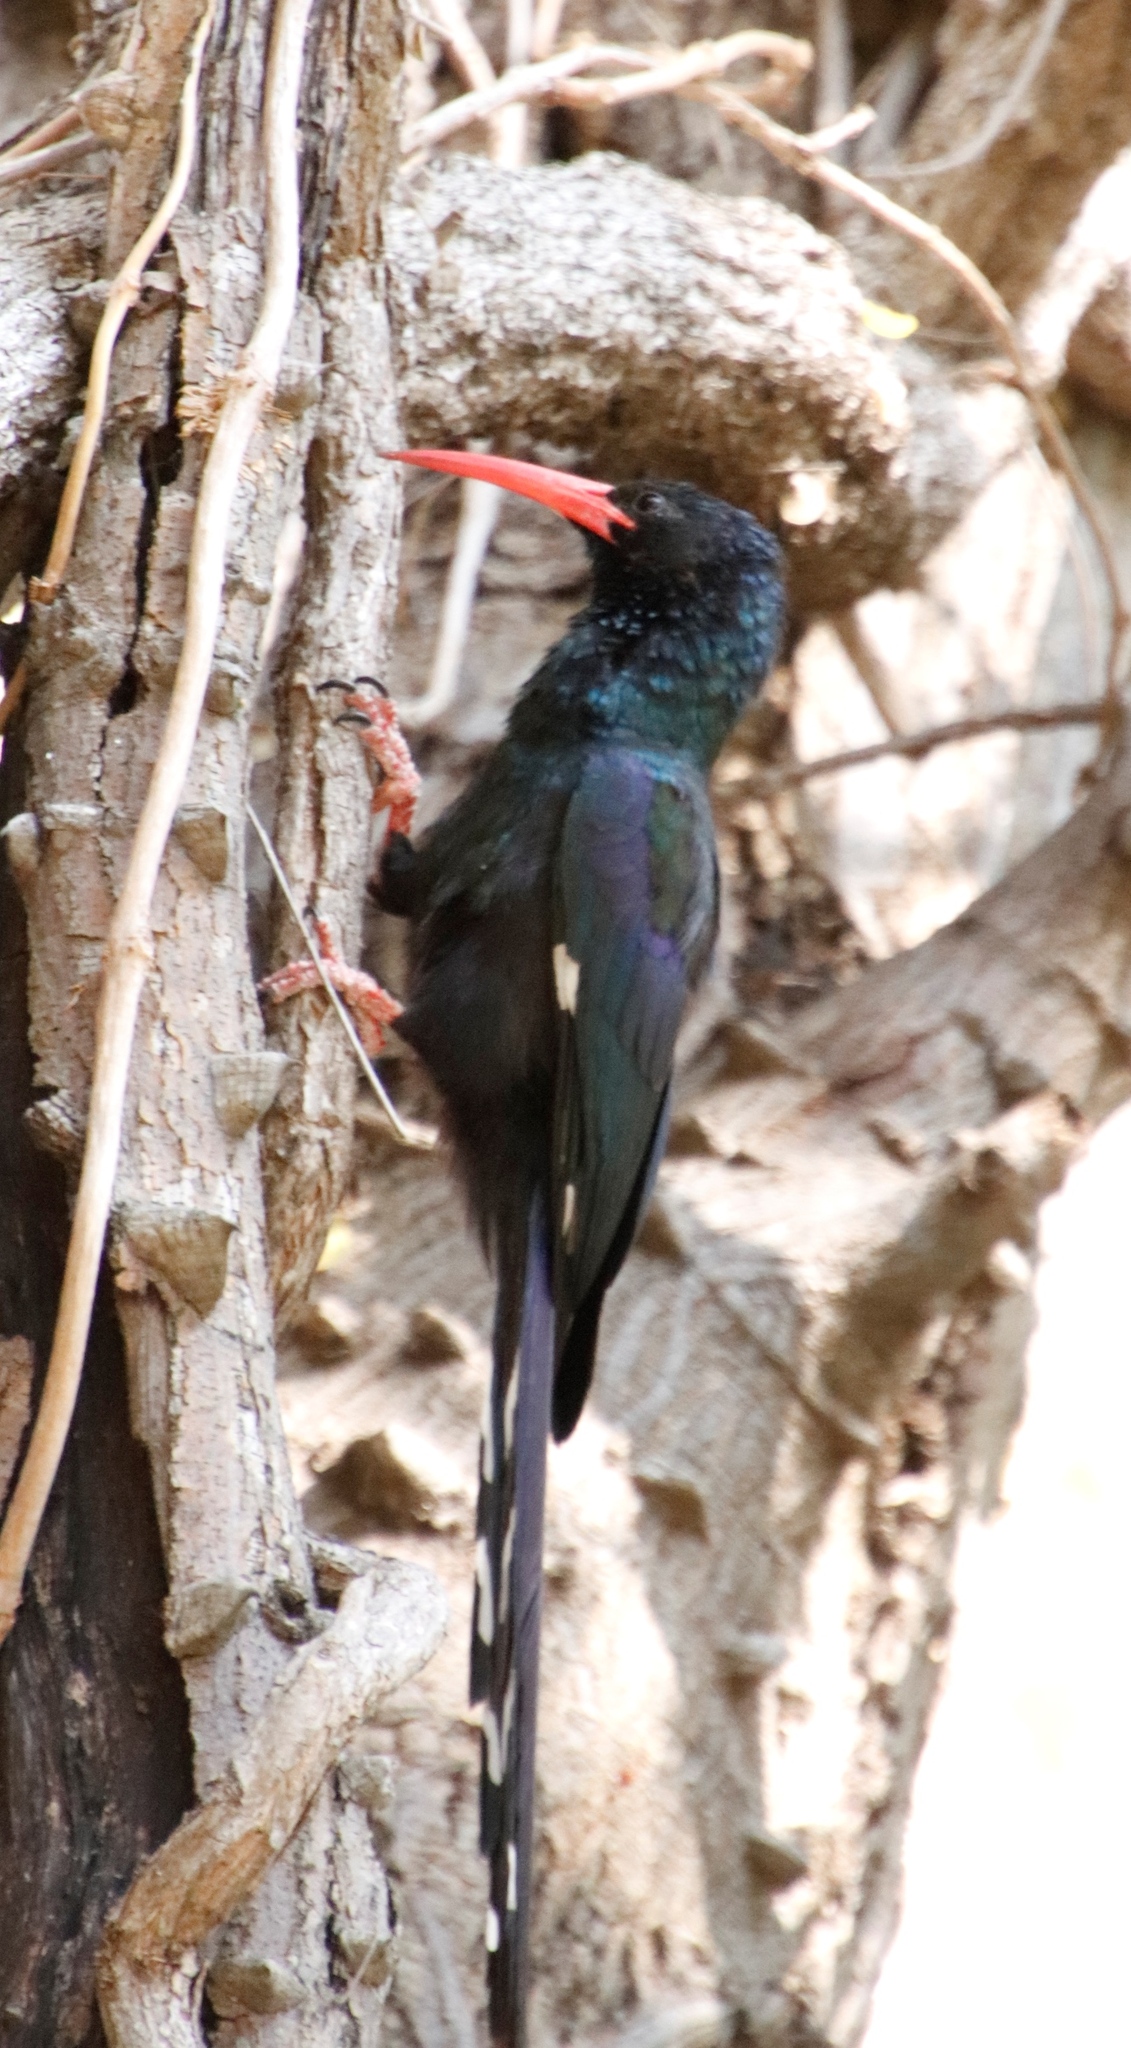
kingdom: Animalia
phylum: Chordata
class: Aves
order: Bucerotiformes
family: Phoeniculidae
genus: Phoeniculus
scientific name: Phoeniculus purpureus
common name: Green woodhoopoe
